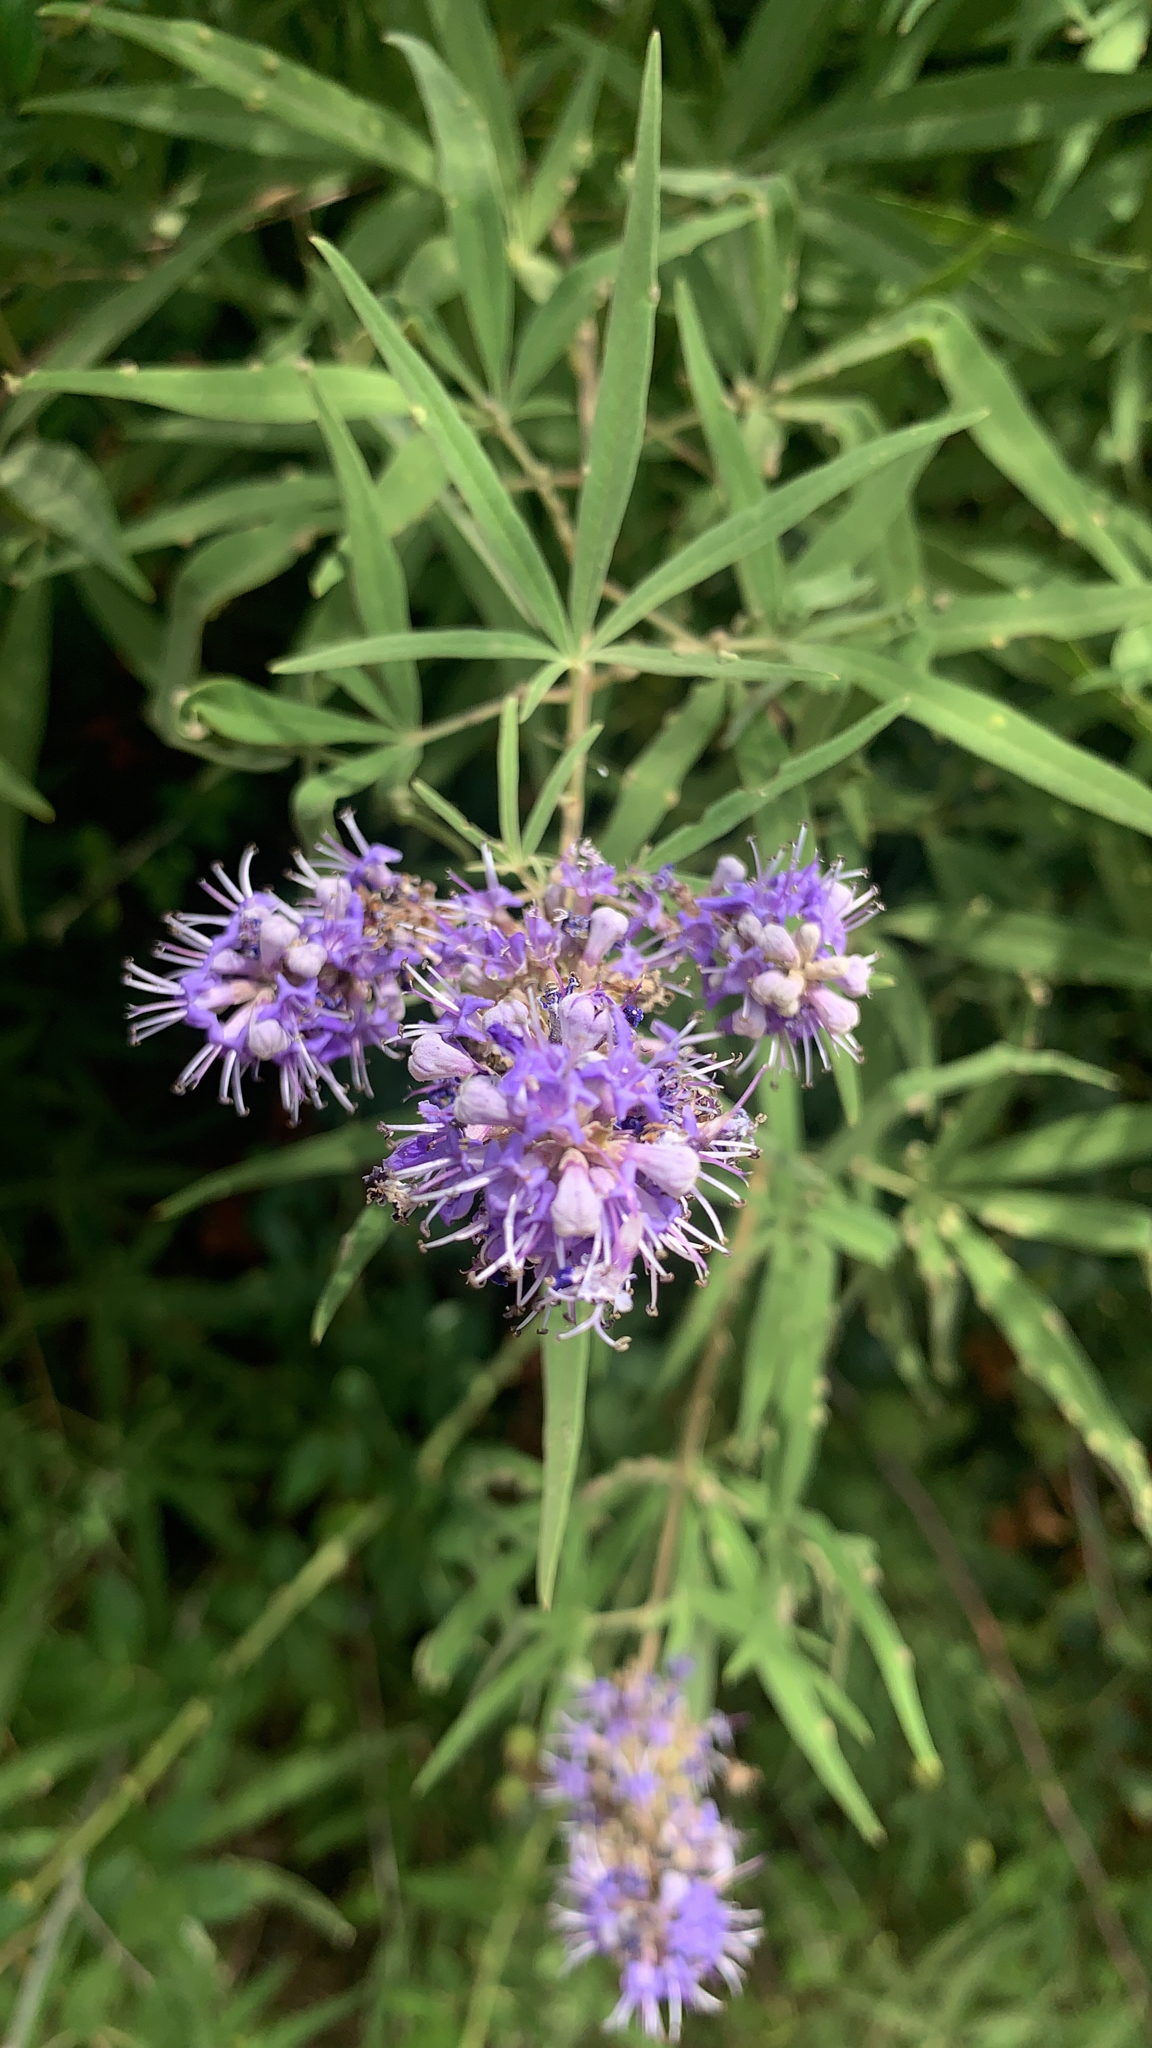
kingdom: Plantae
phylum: Tracheophyta
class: Magnoliopsida
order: Lamiales
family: Lamiaceae
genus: Vitex
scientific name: Vitex agnus-castus
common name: Chasteberry
